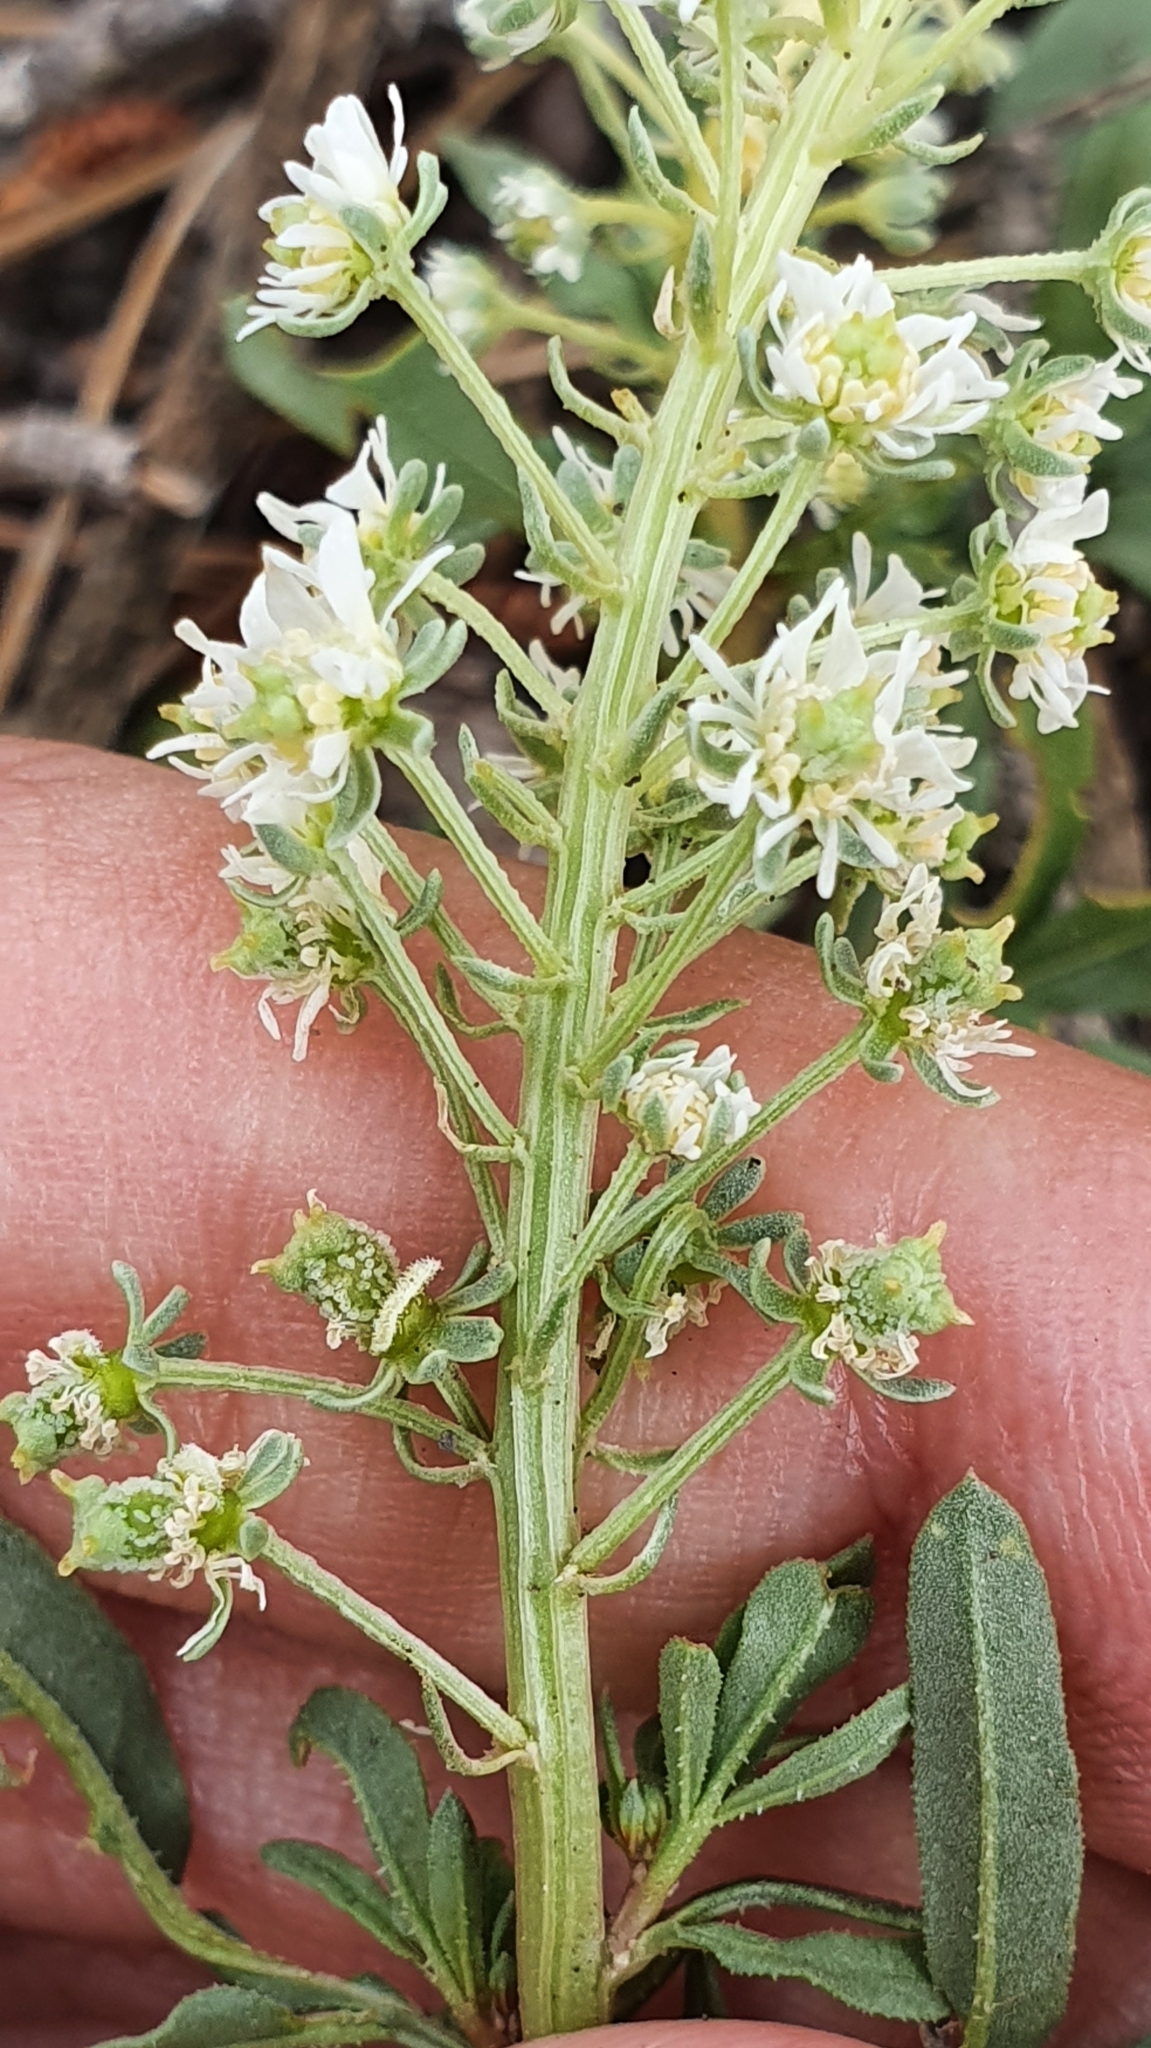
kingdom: Plantae
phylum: Tracheophyta
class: Magnoliopsida
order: Brassicales
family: Resedaceae
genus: Reseda
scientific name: Reseda duriaeana
